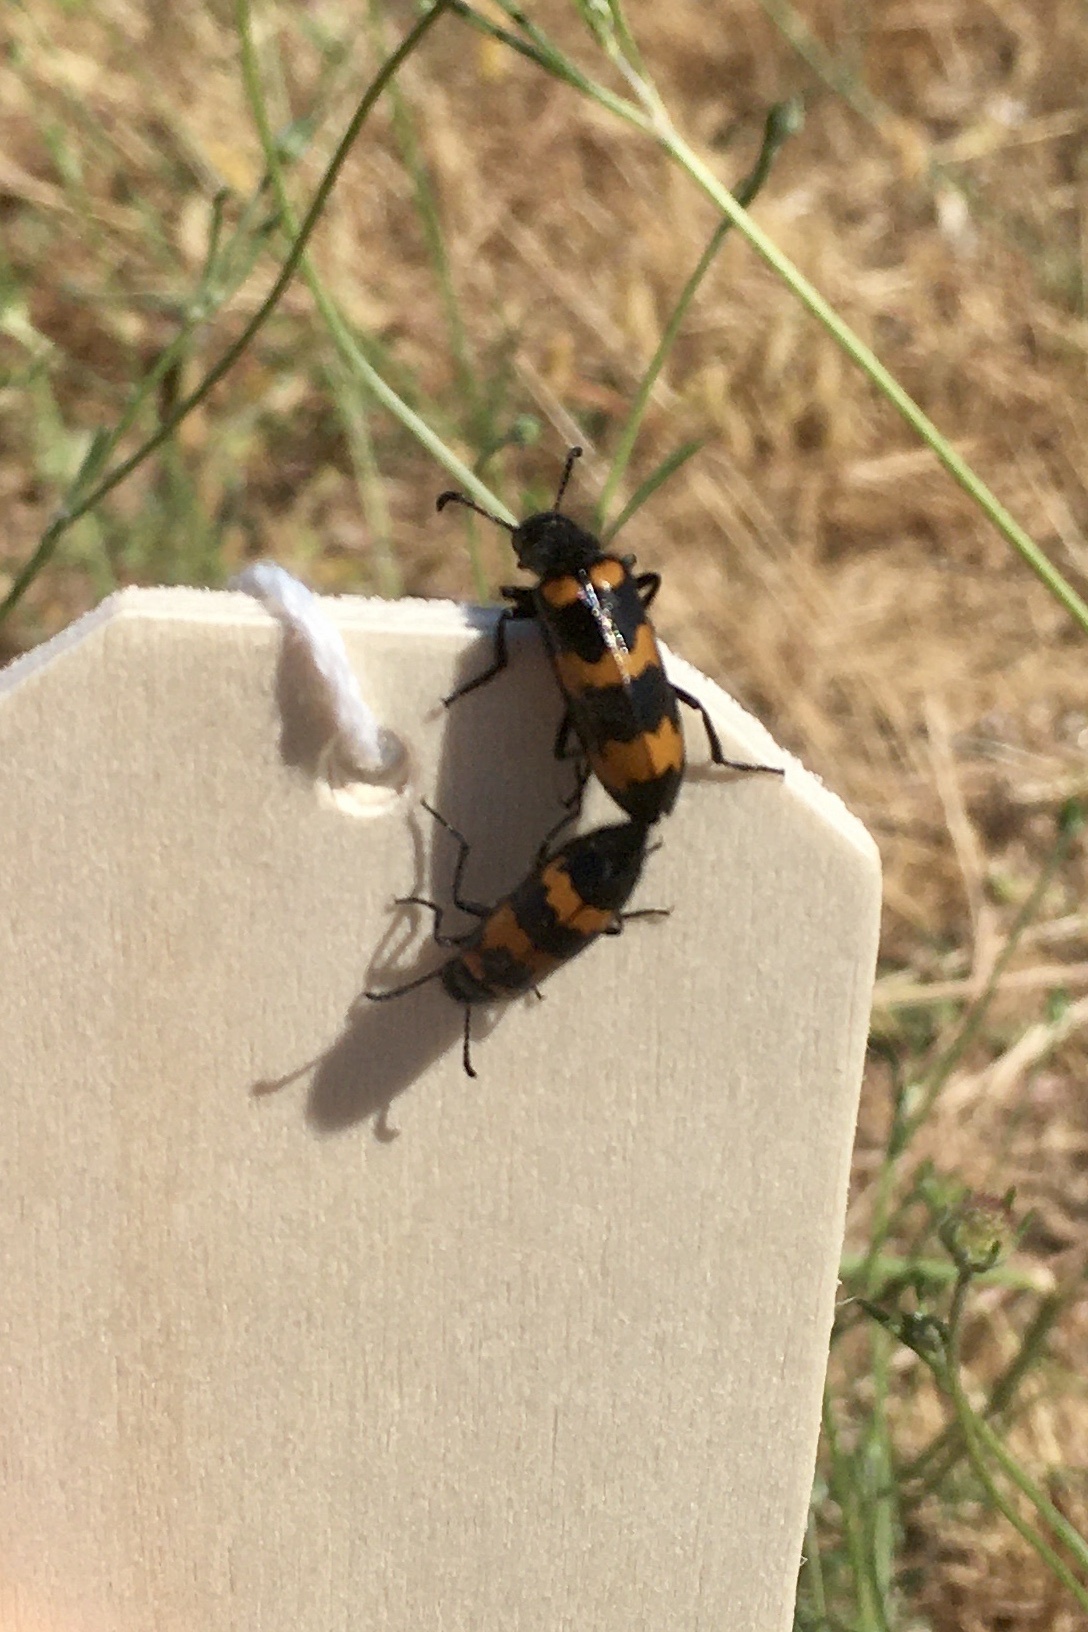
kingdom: Animalia
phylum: Arthropoda
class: Insecta
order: Coleoptera
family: Meloidae
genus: Mylabris
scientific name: Mylabris variabilis
